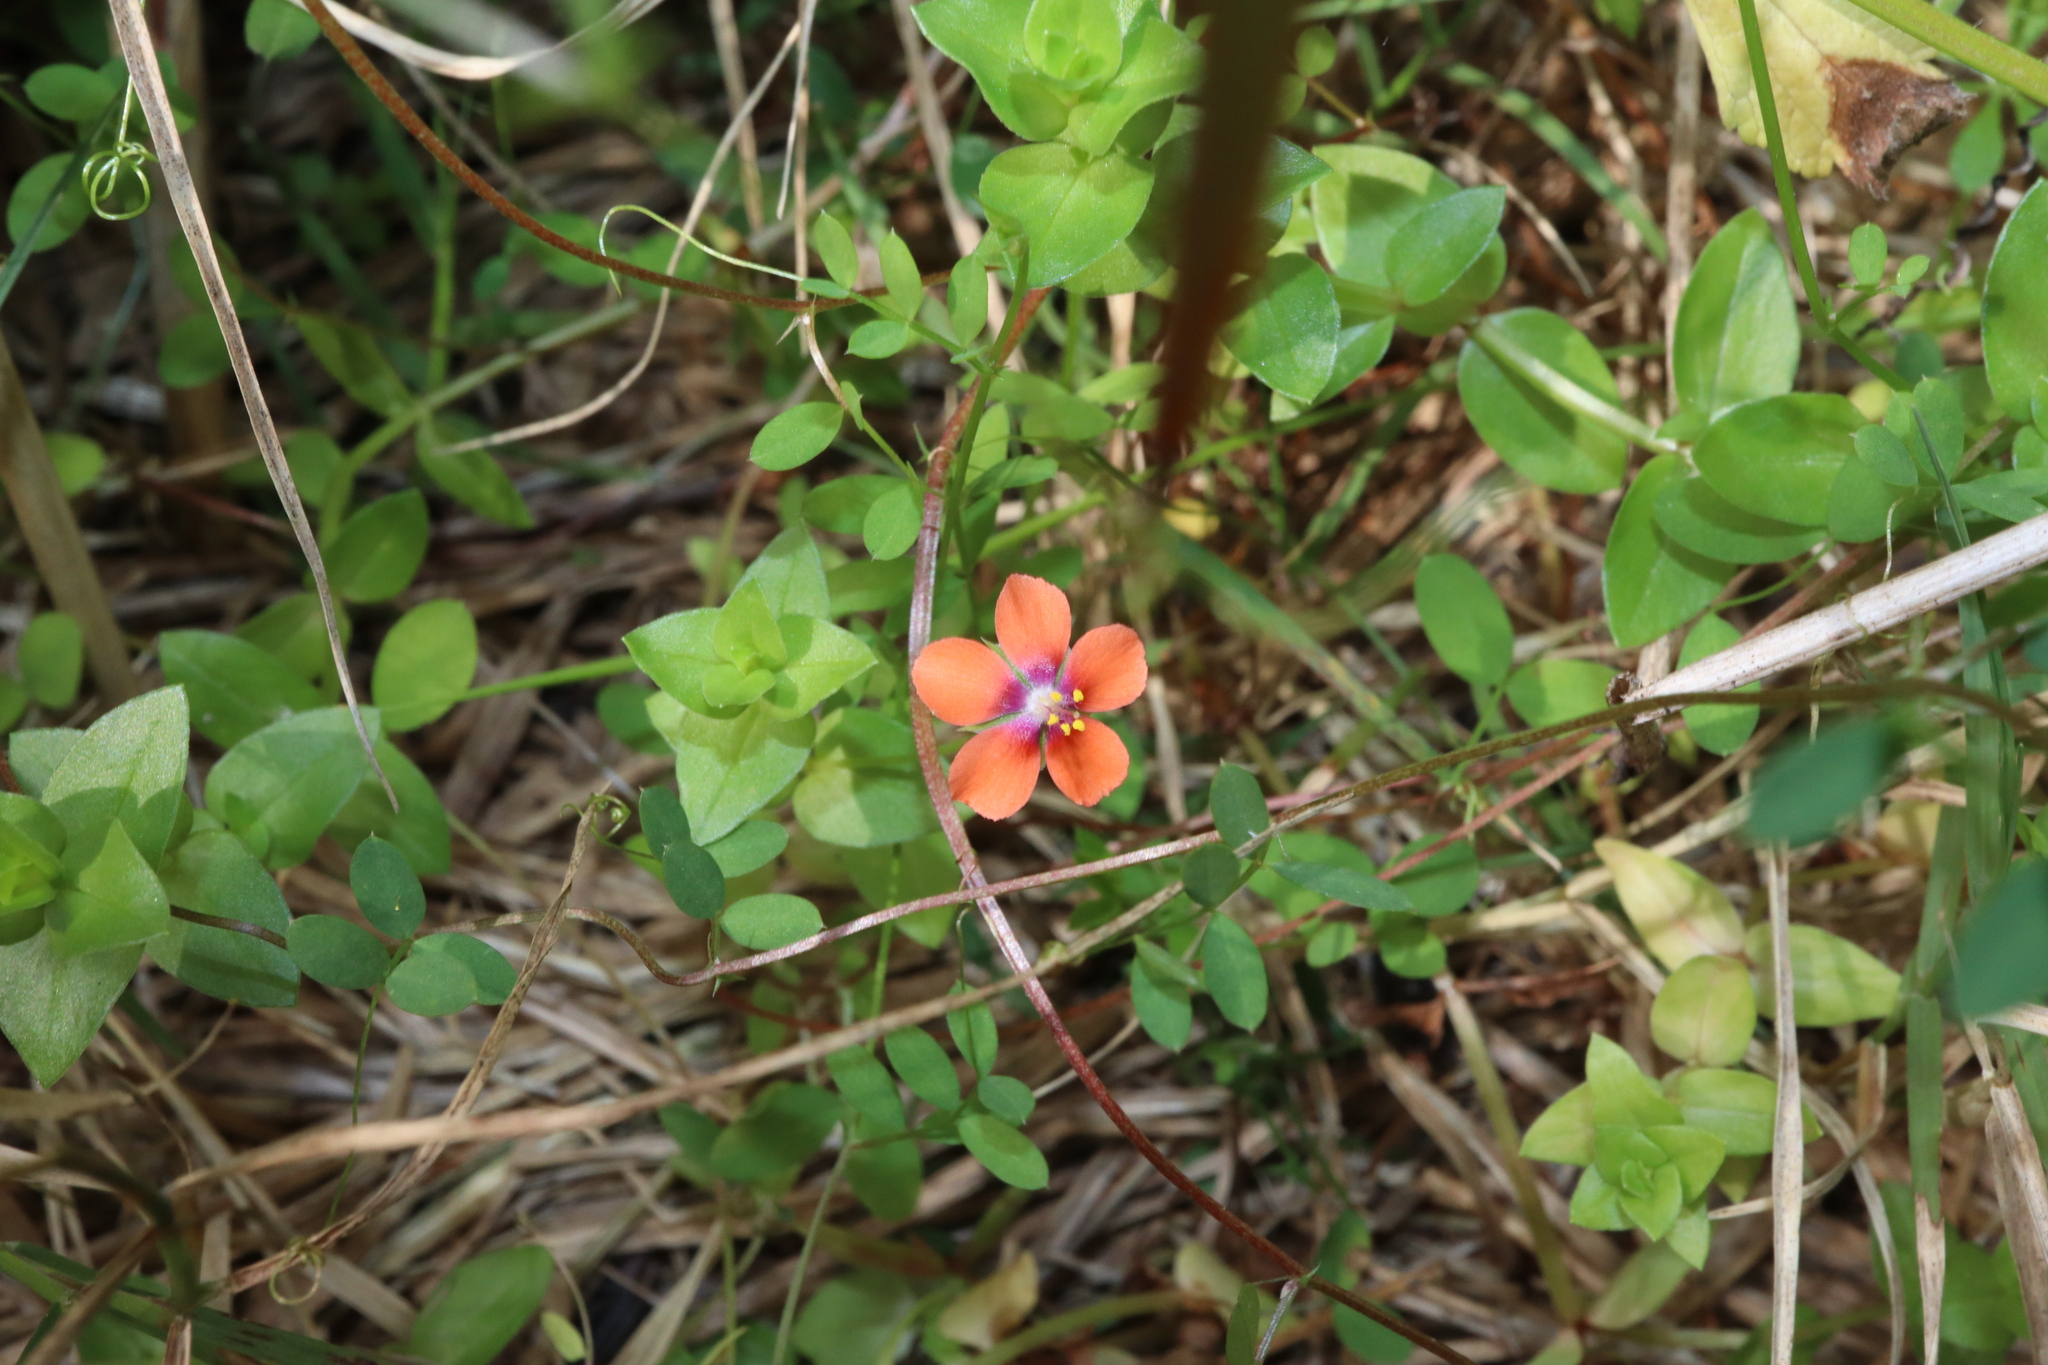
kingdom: Plantae
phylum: Tracheophyta
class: Magnoliopsida
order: Ericales
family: Primulaceae
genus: Lysimachia
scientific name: Lysimachia arvensis
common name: Scarlet pimpernel
